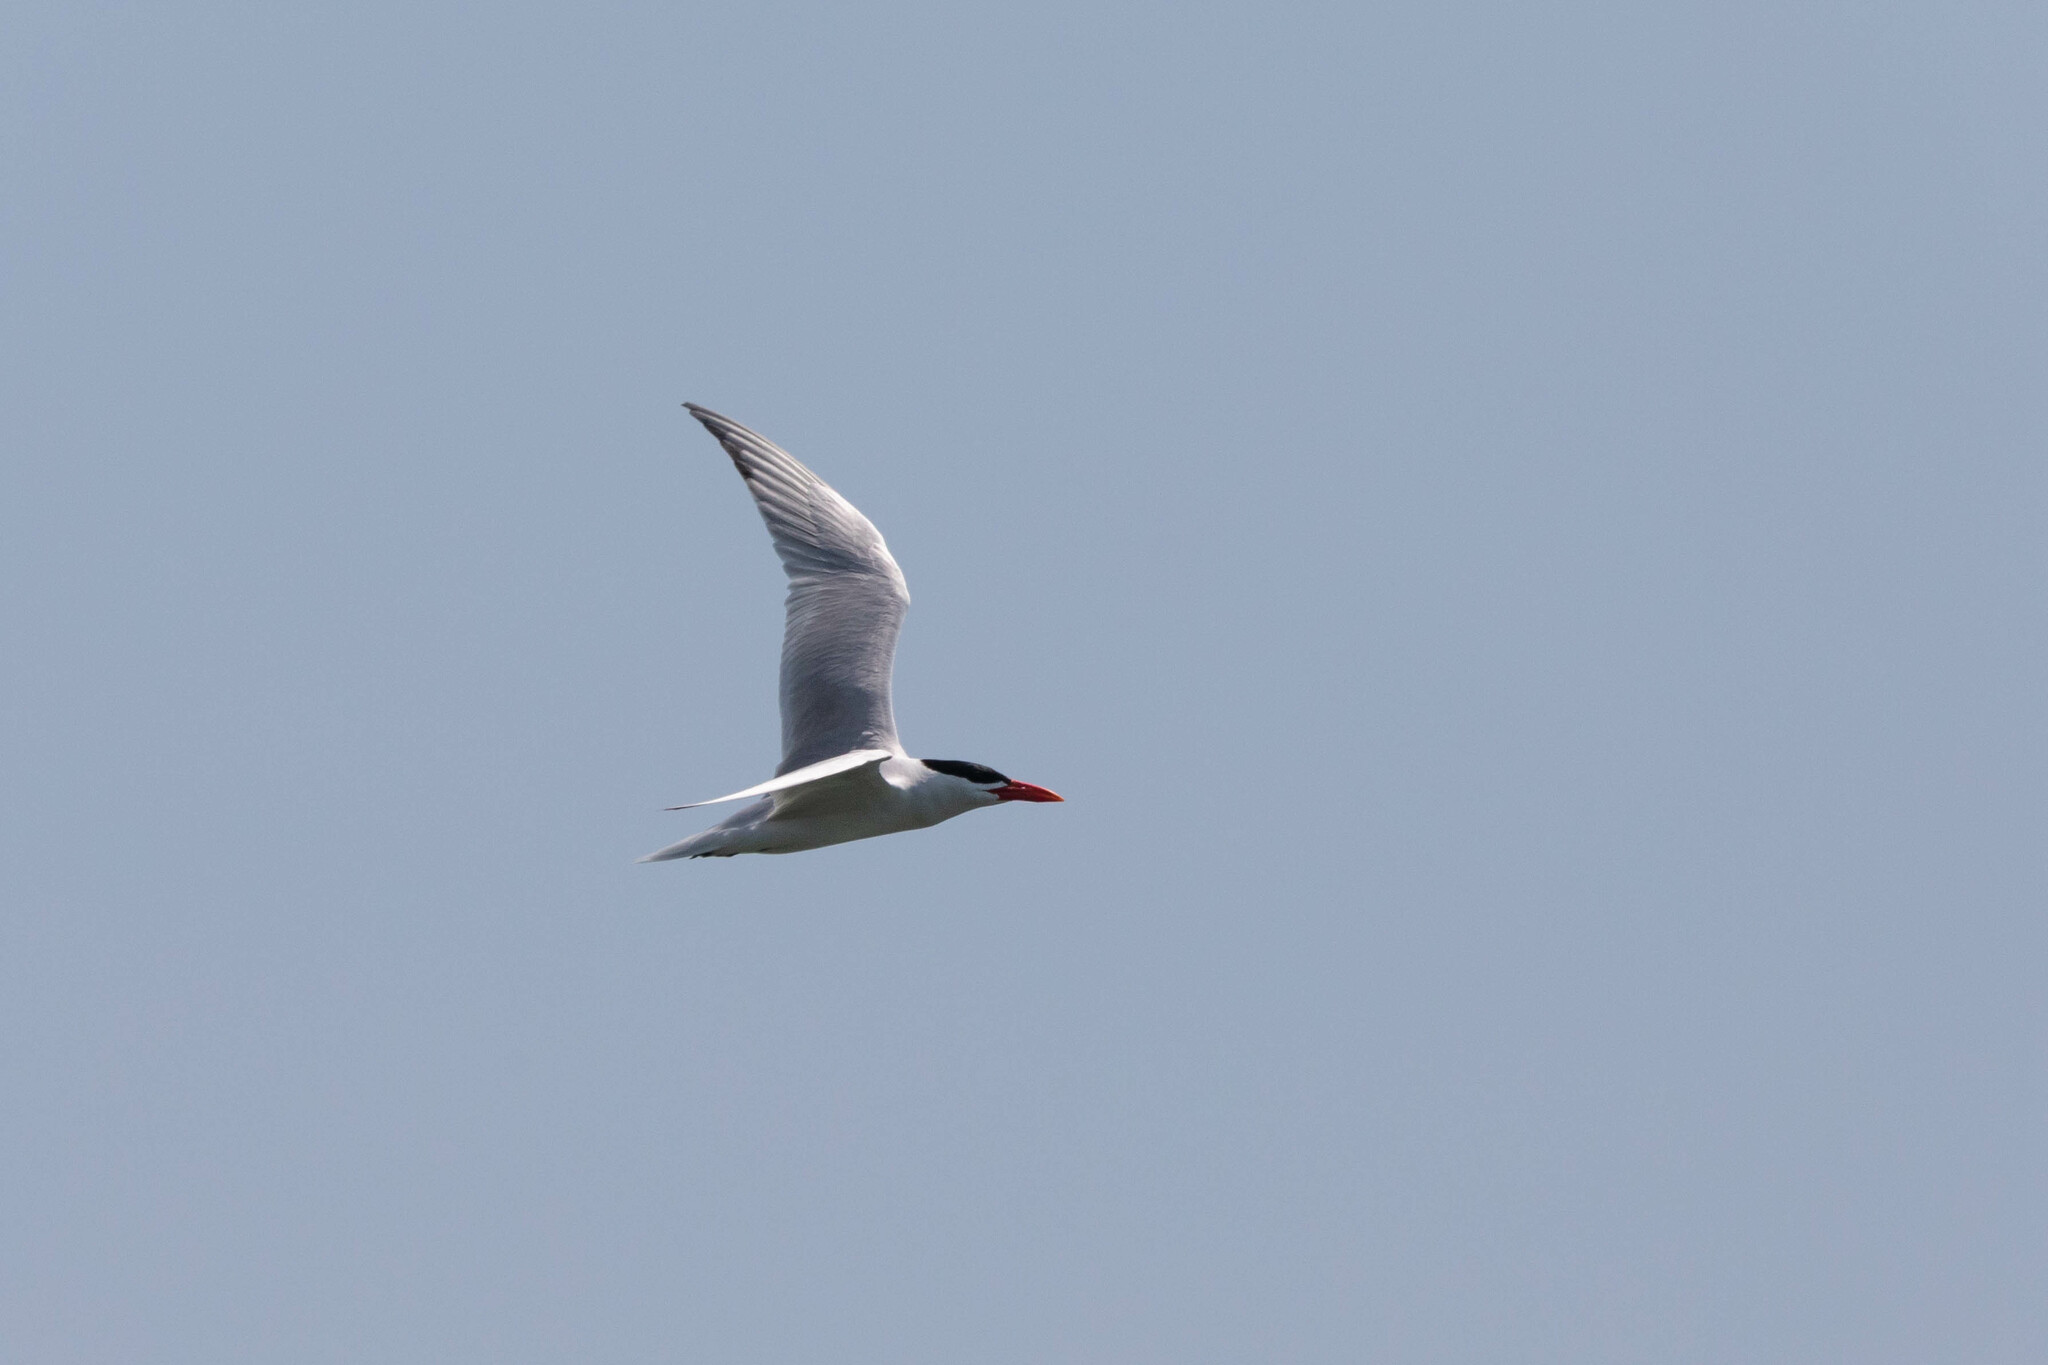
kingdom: Animalia
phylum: Chordata
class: Aves
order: Charadriiformes
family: Laridae
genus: Hydroprogne
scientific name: Hydroprogne caspia
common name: Caspian tern
